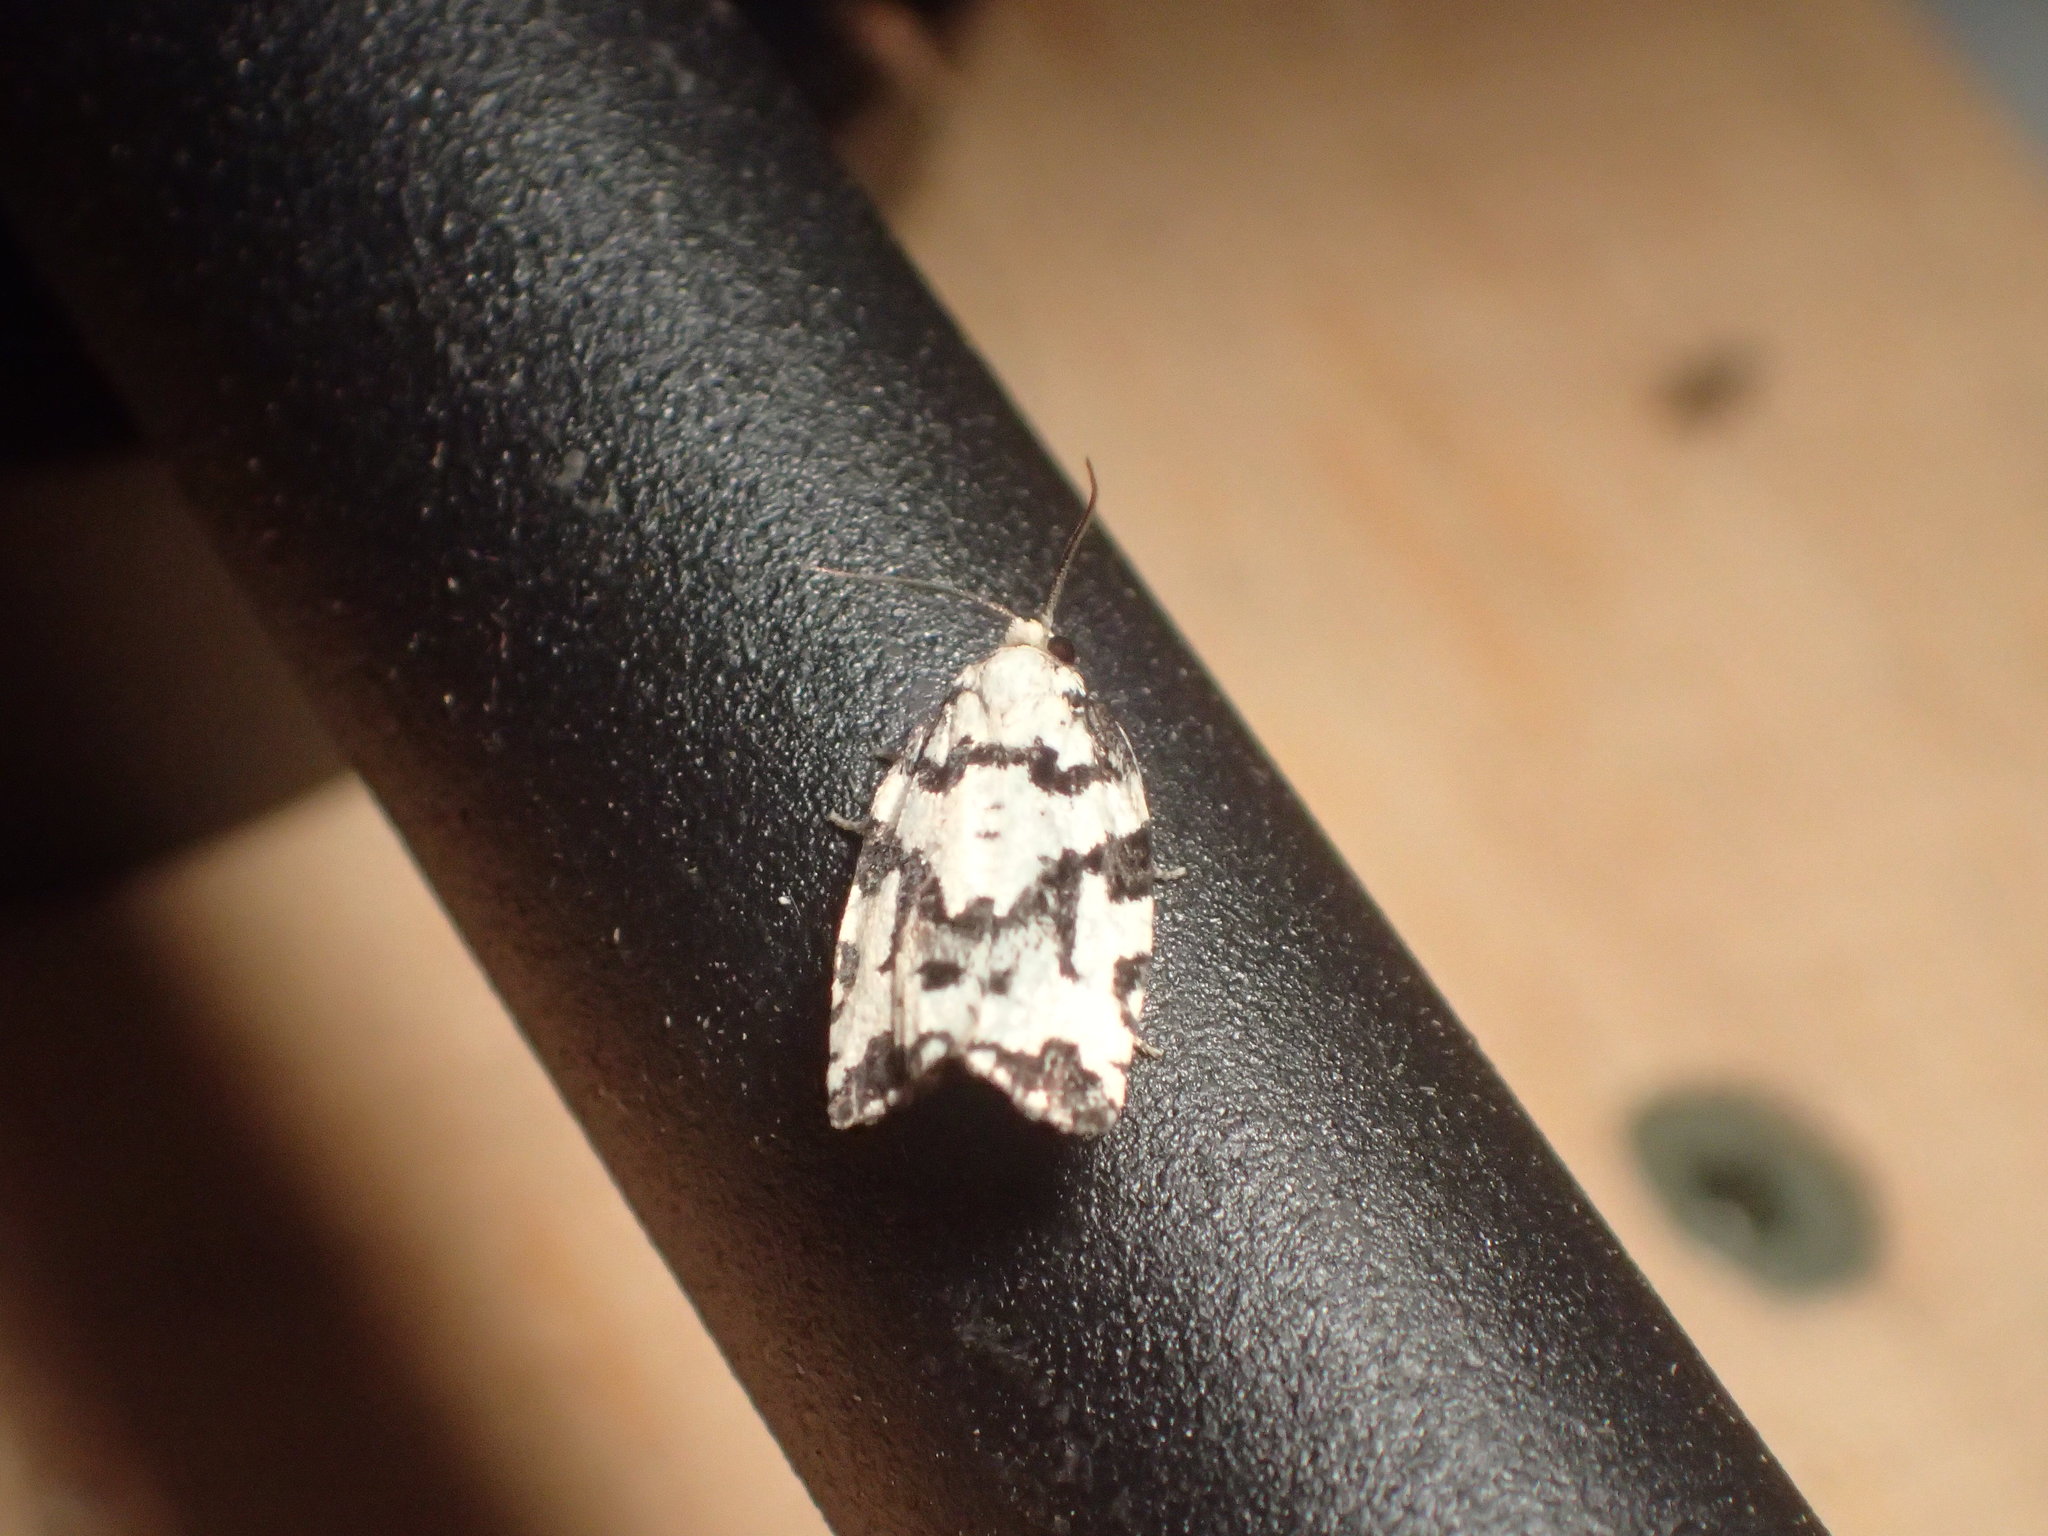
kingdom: Animalia
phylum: Arthropoda
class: Insecta
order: Lepidoptera
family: Tortricidae
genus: Archips
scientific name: Archips dissitana
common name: Boldly-marked archips moth
